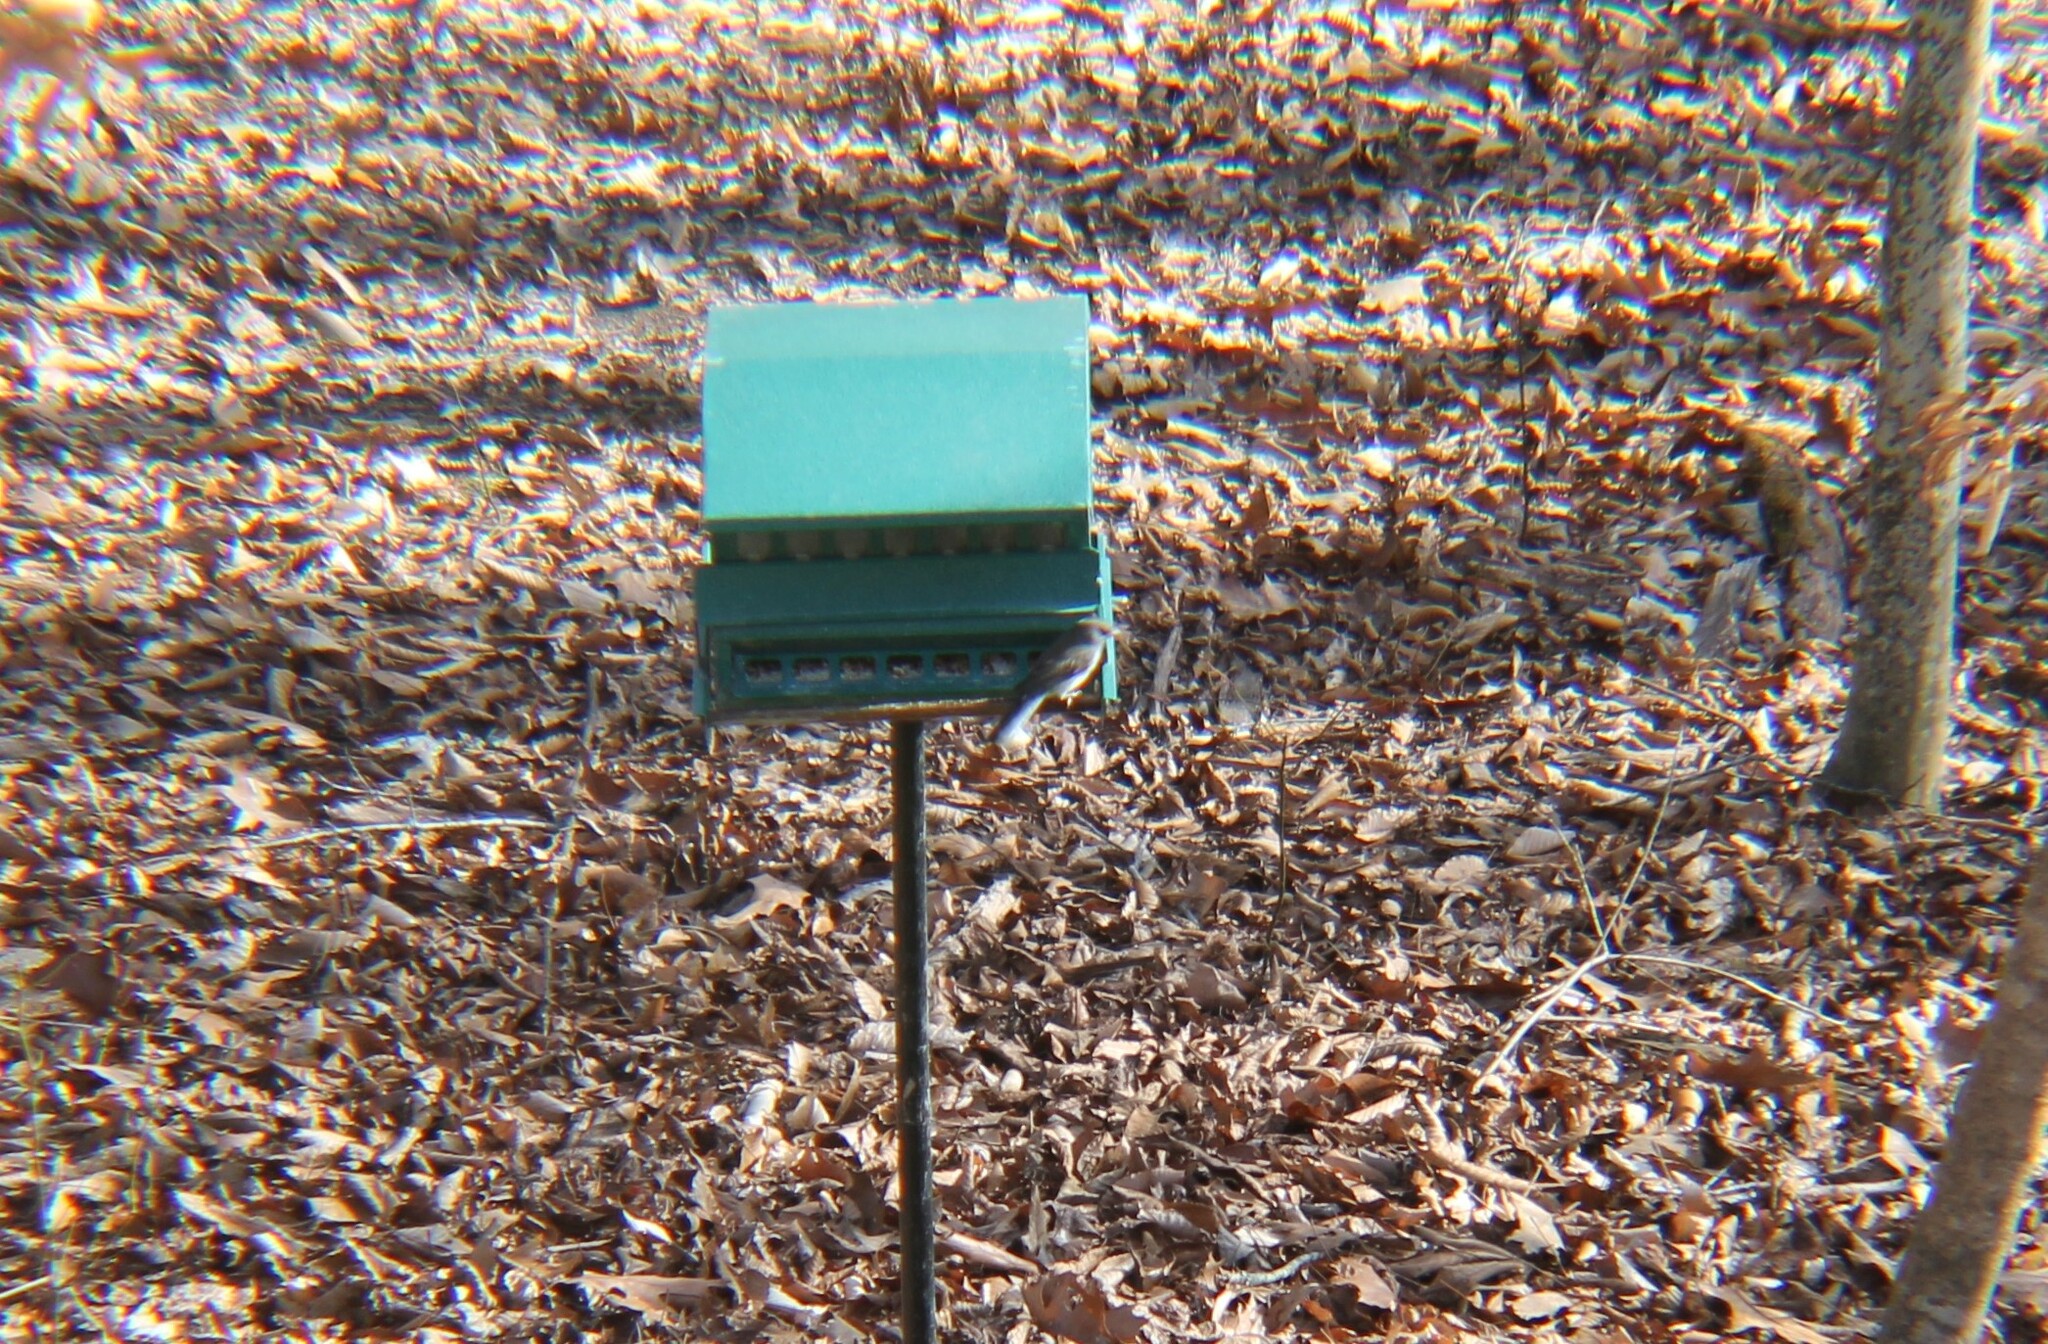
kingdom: Animalia
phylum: Chordata
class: Aves
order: Passeriformes
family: Passerellidae
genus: Junco
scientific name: Junco hyemalis
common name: Dark-eyed junco
